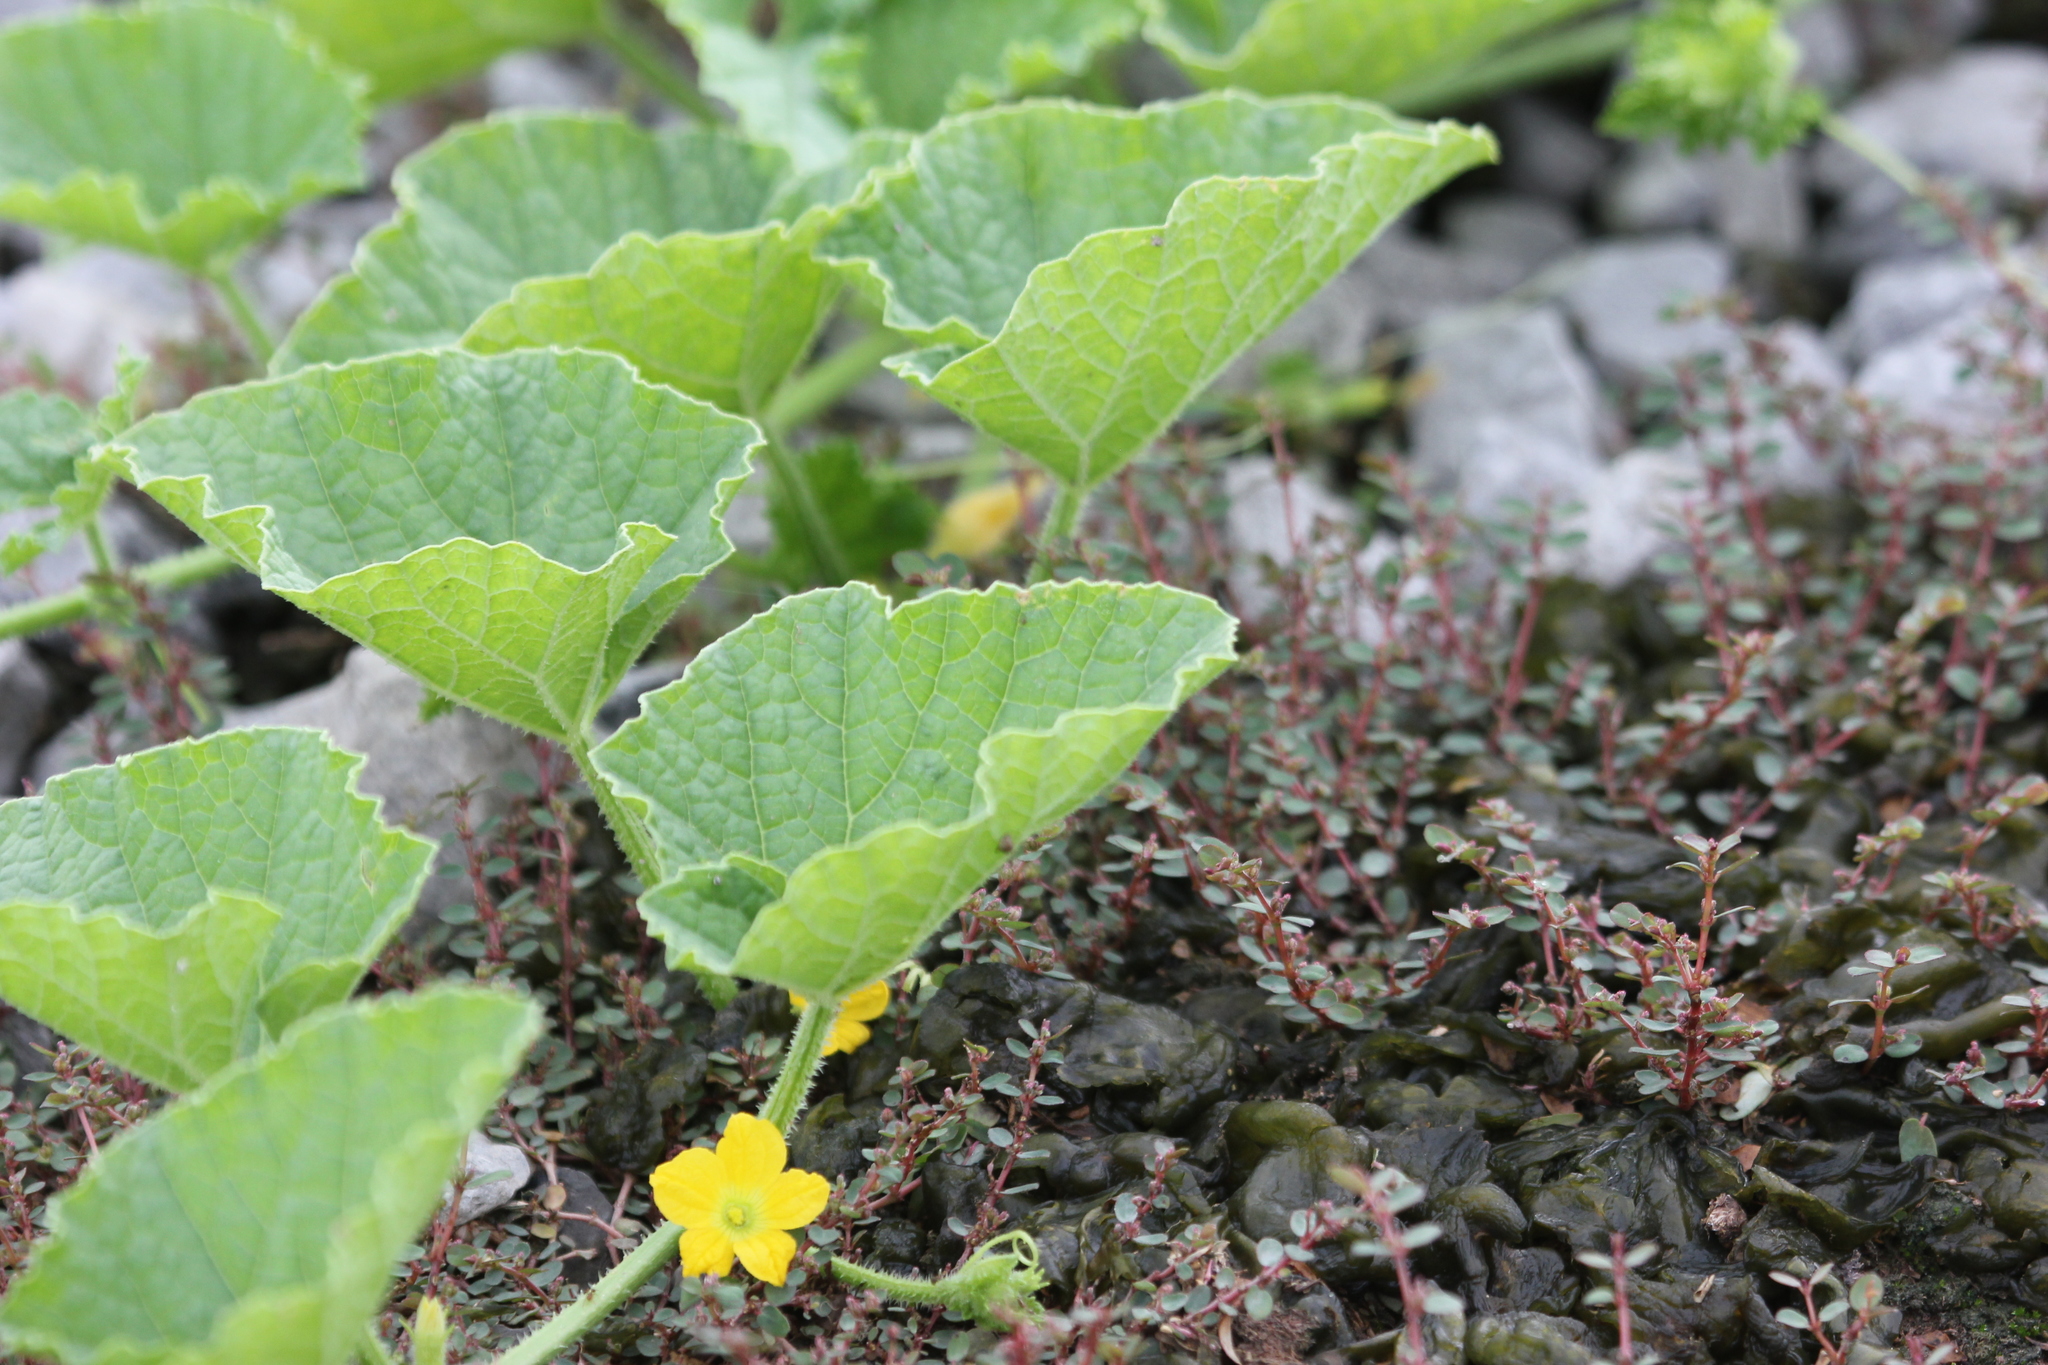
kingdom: Plantae
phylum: Tracheophyta
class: Magnoliopsida
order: Cucurbitales
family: Cucurbitaceae
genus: Cucumis
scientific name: Cucumis melo
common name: Melon
